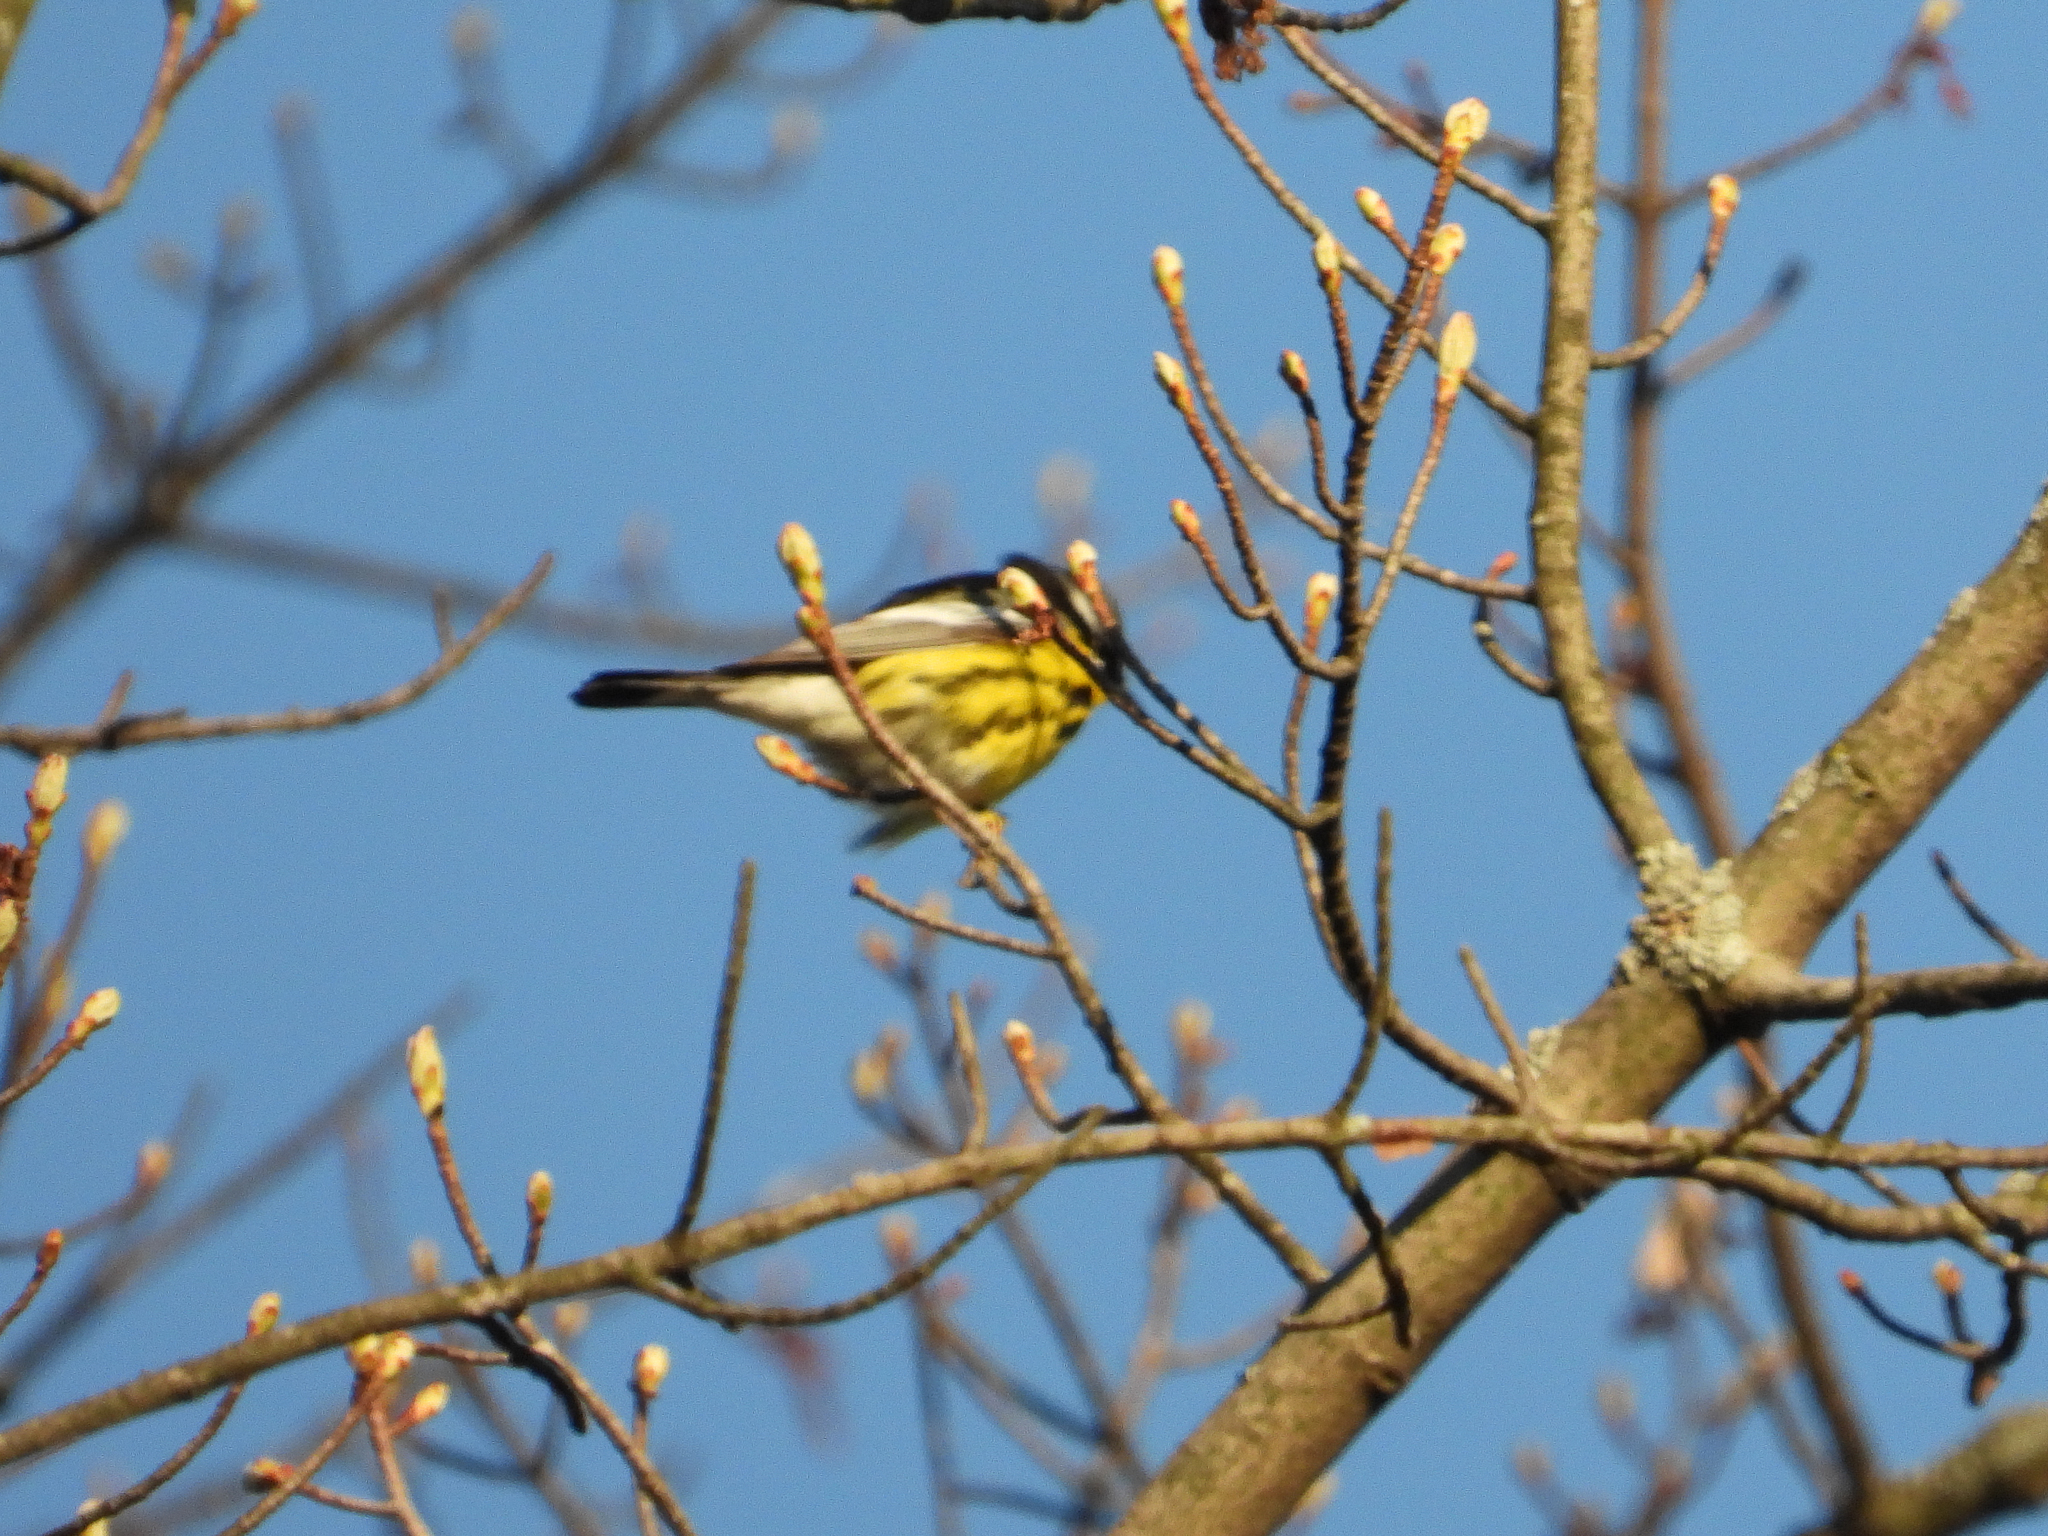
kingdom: Animalia
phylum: Chordata
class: Aves
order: Passeriformes
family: Parulidae
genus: Setophaga
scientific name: Setophaga magnolia
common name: Magnolia warbler
